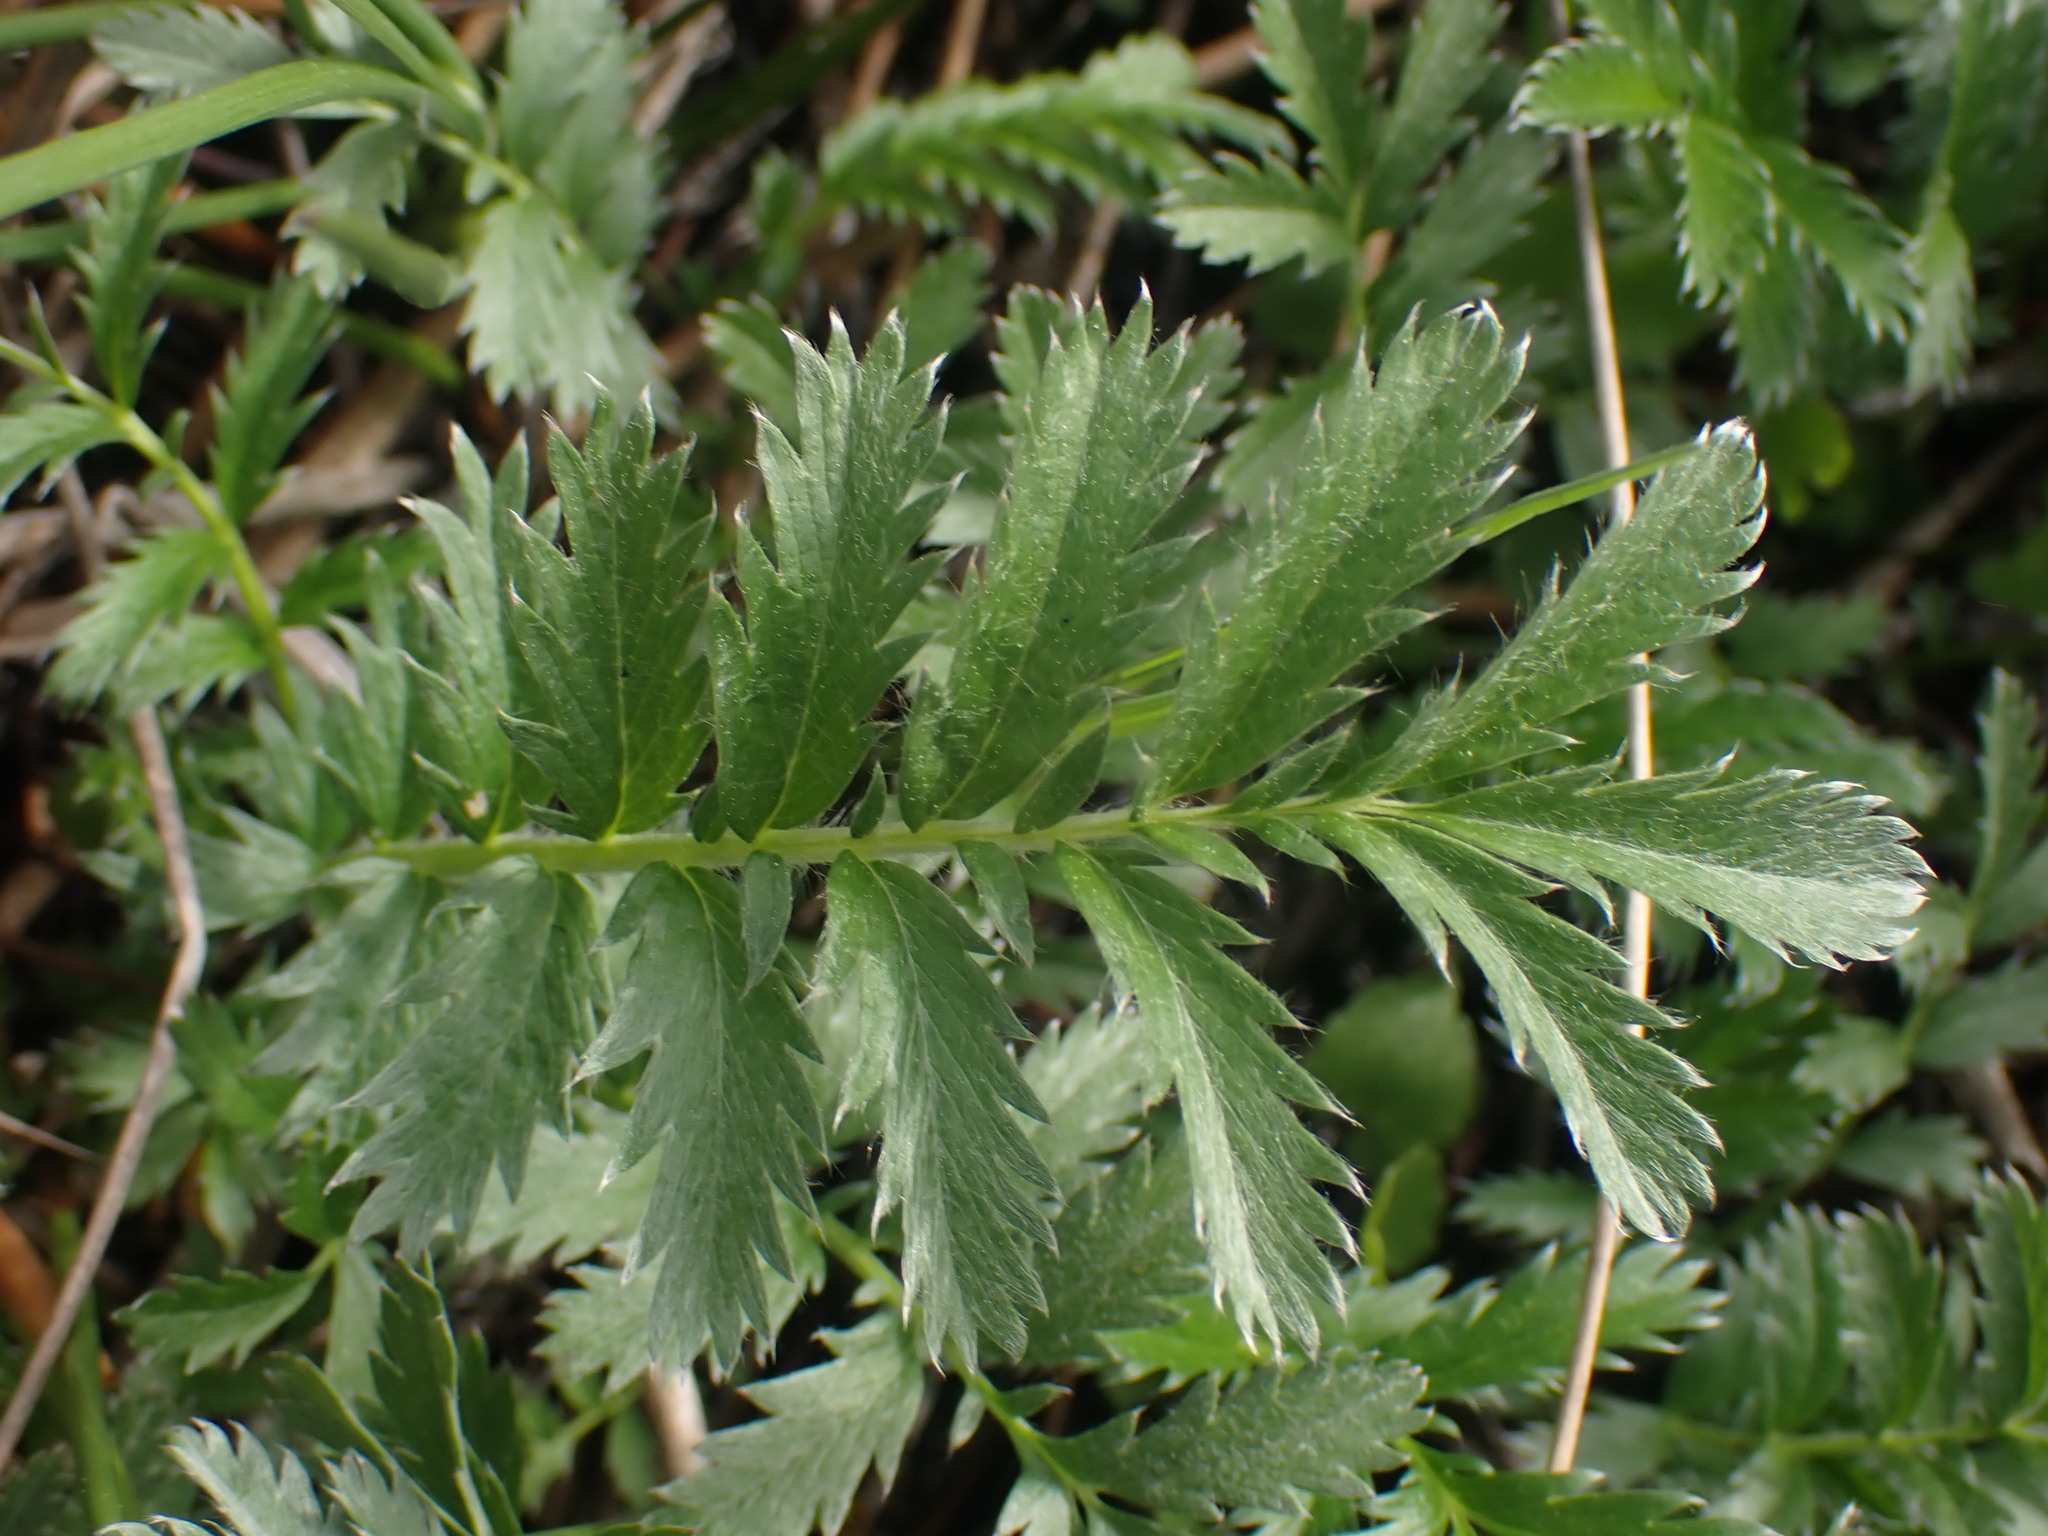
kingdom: Plantae
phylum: Tracheophyta
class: Magnoliopsida
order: Rosales
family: Rosaceae
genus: Argentina
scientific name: Argentina anserina
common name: Common silverweed
